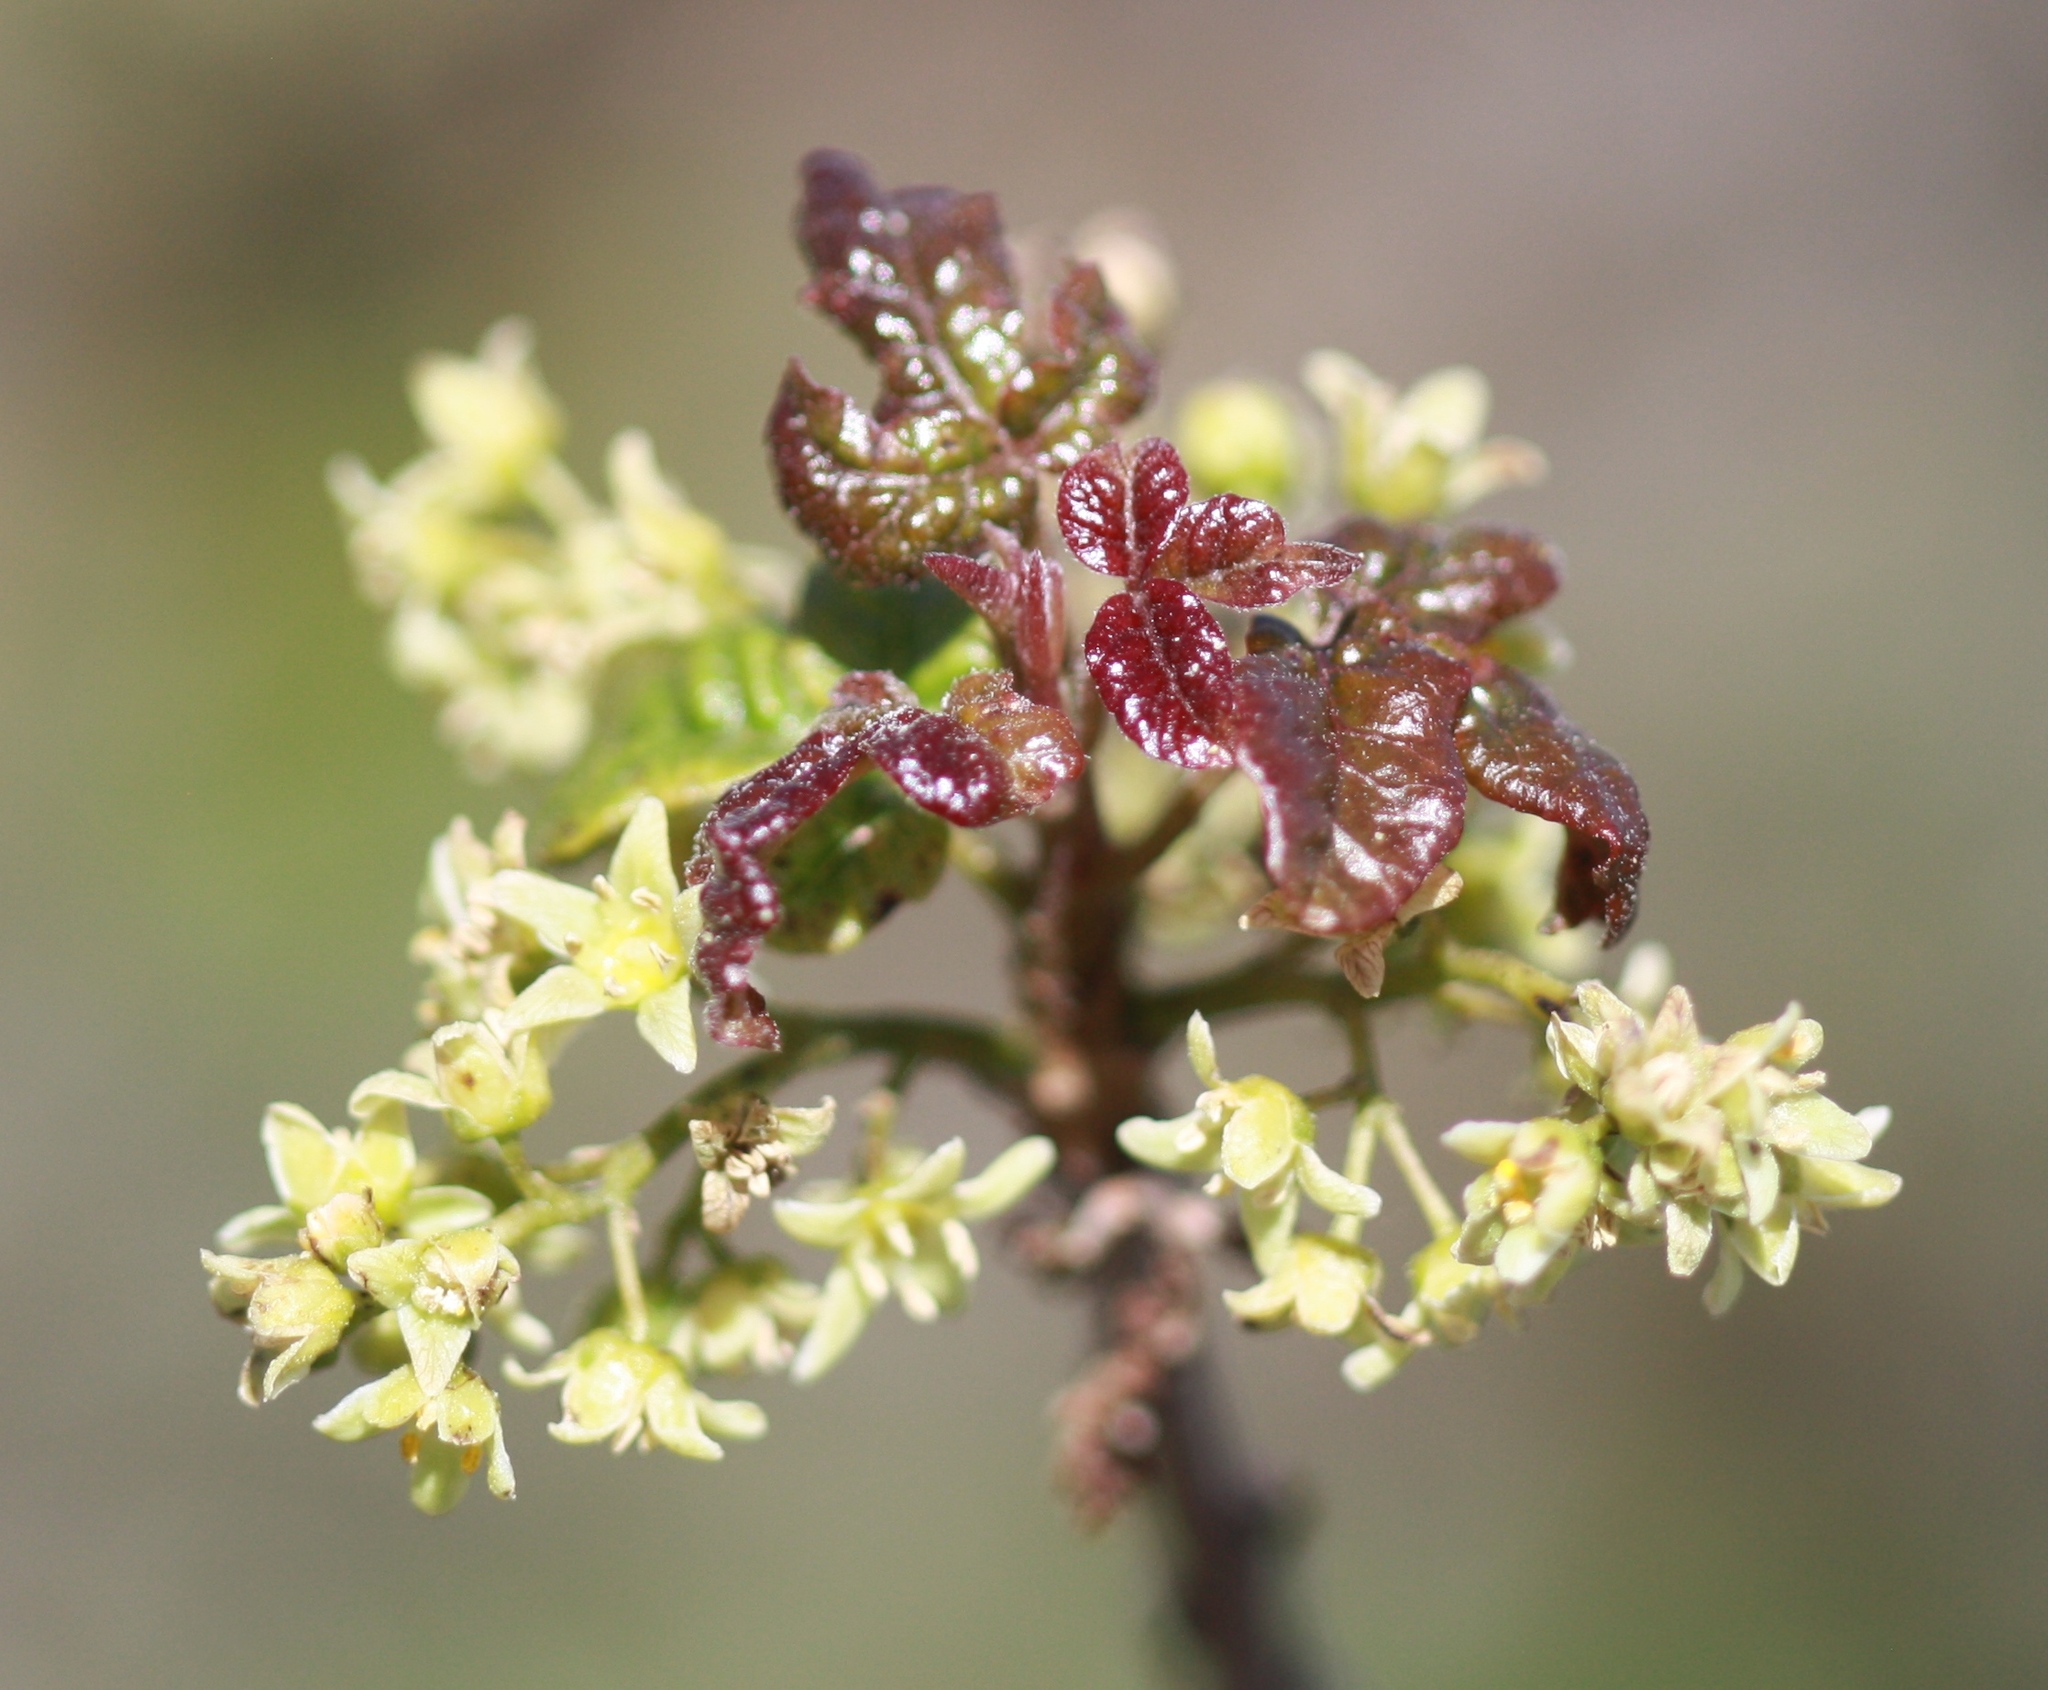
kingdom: Plantae
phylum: Tracheophyta
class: Magnoliopsida
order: Sapindales
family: Anacardiaceae
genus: Toxicodendron
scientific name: Toxicodendron diversilobum
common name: Pacific poison-oak
